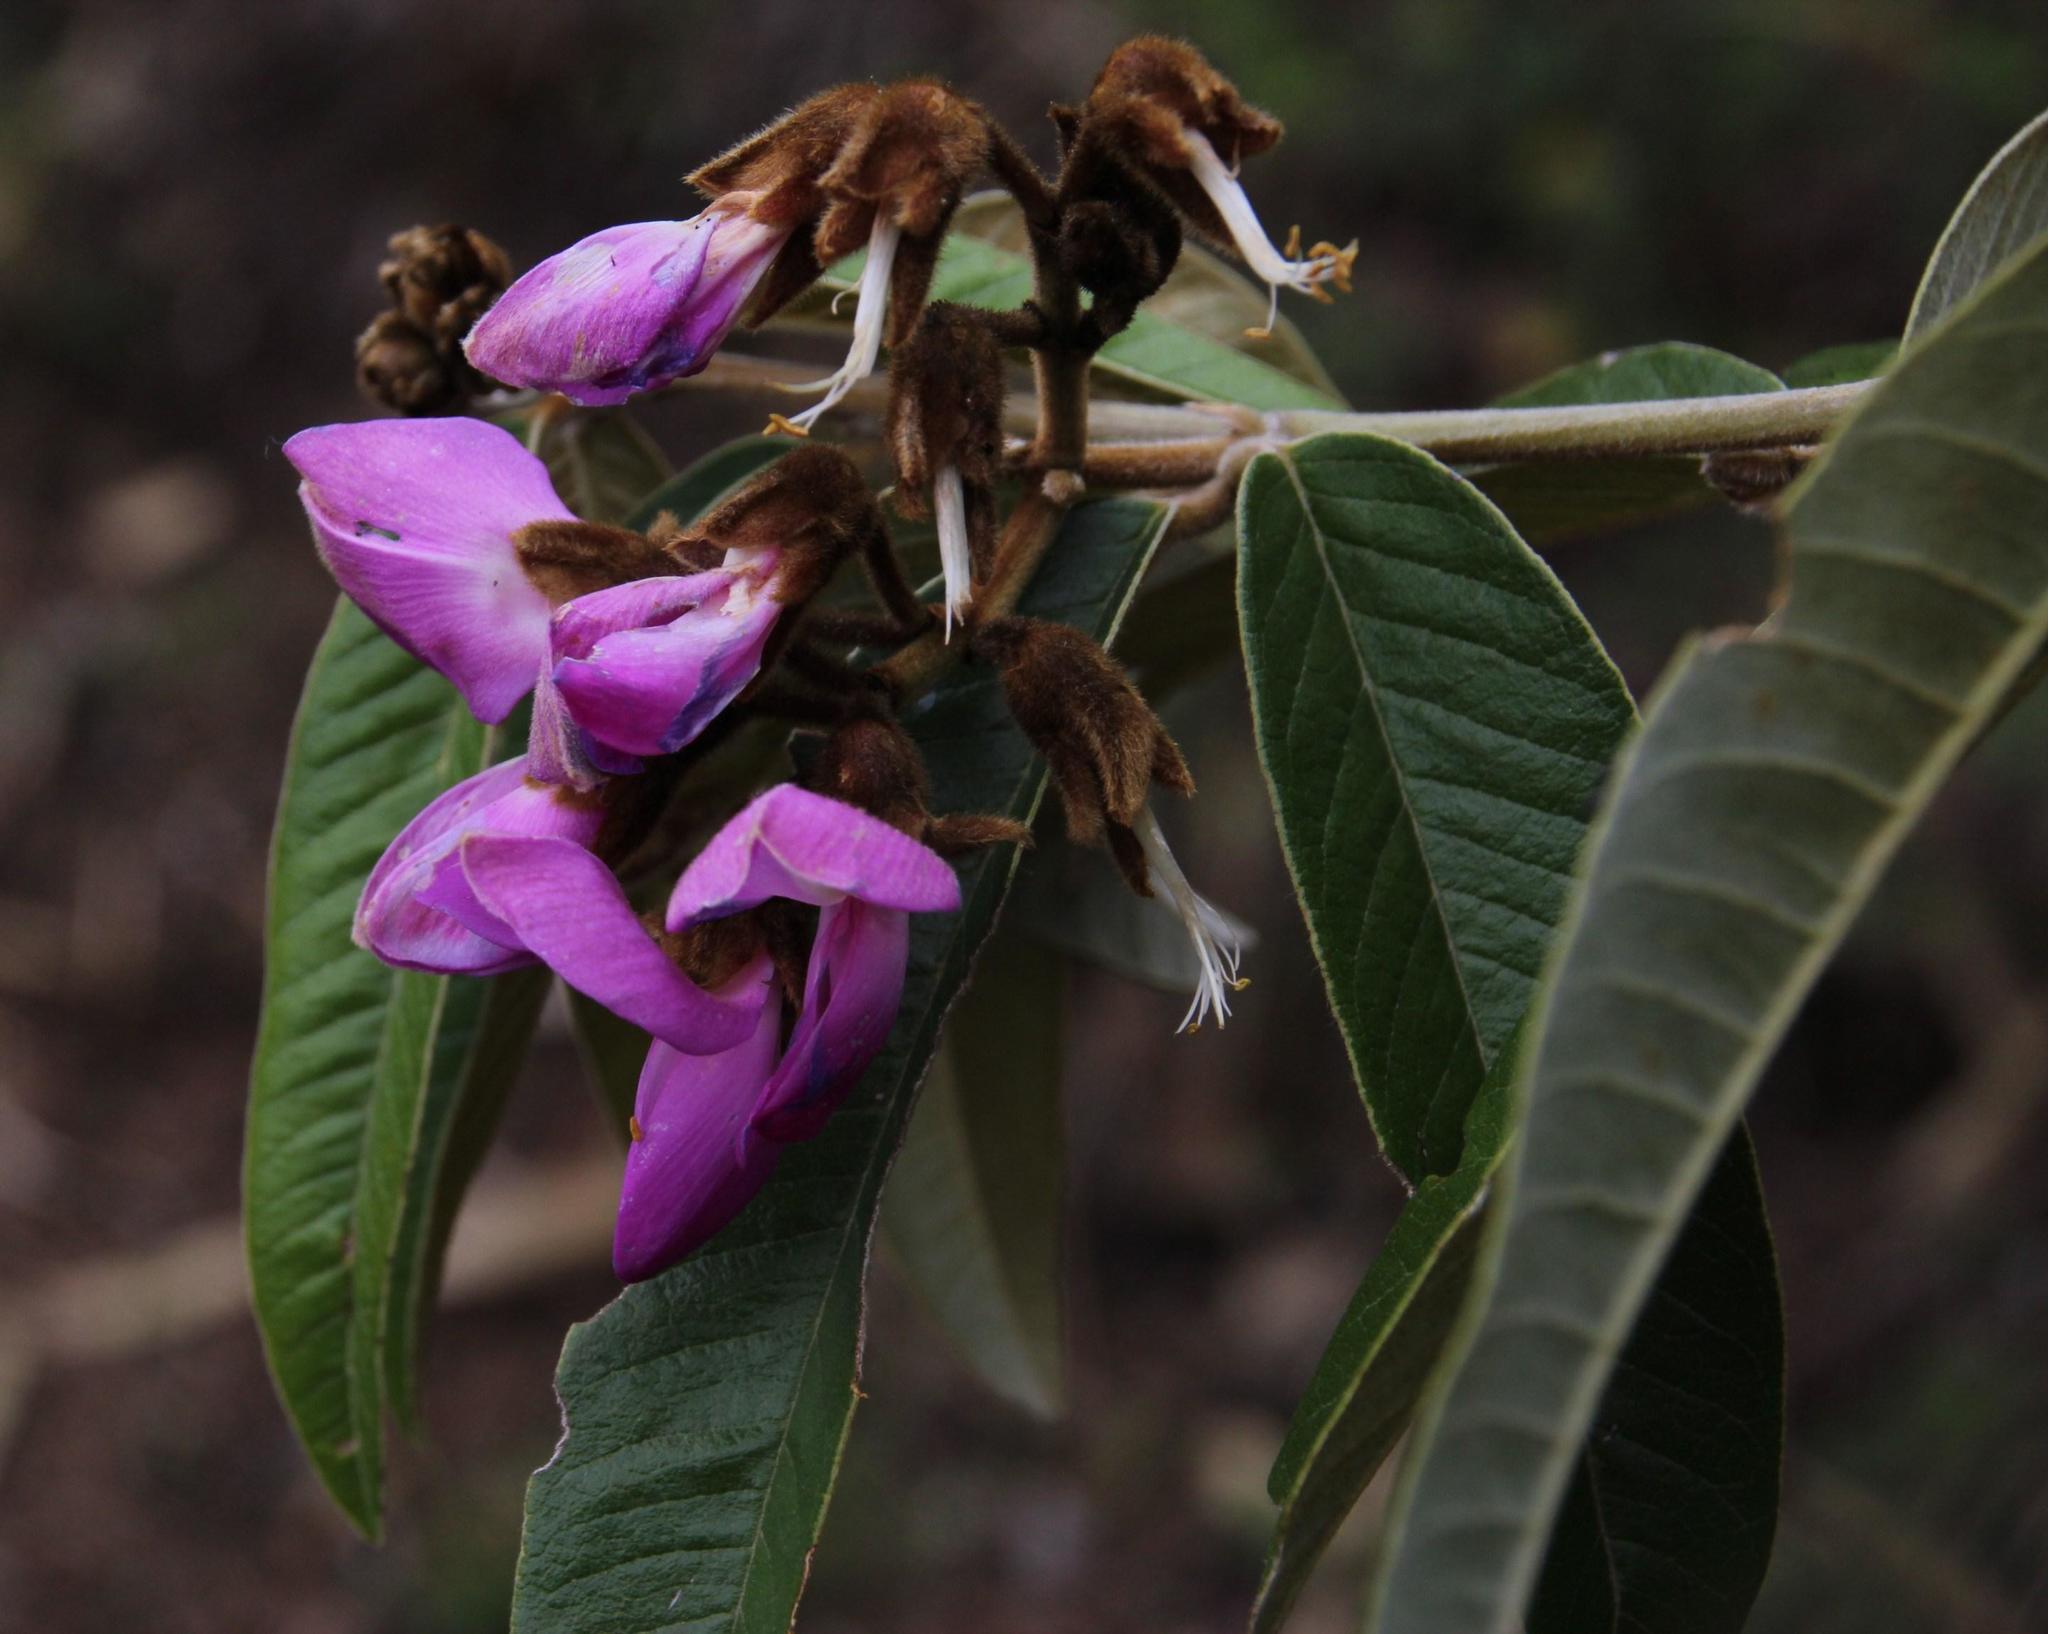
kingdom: Plantae
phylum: Tracheophyta
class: Magnoliopsida
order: Fabales
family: Fabaceae
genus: Collaea
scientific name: Collaea speciosa
